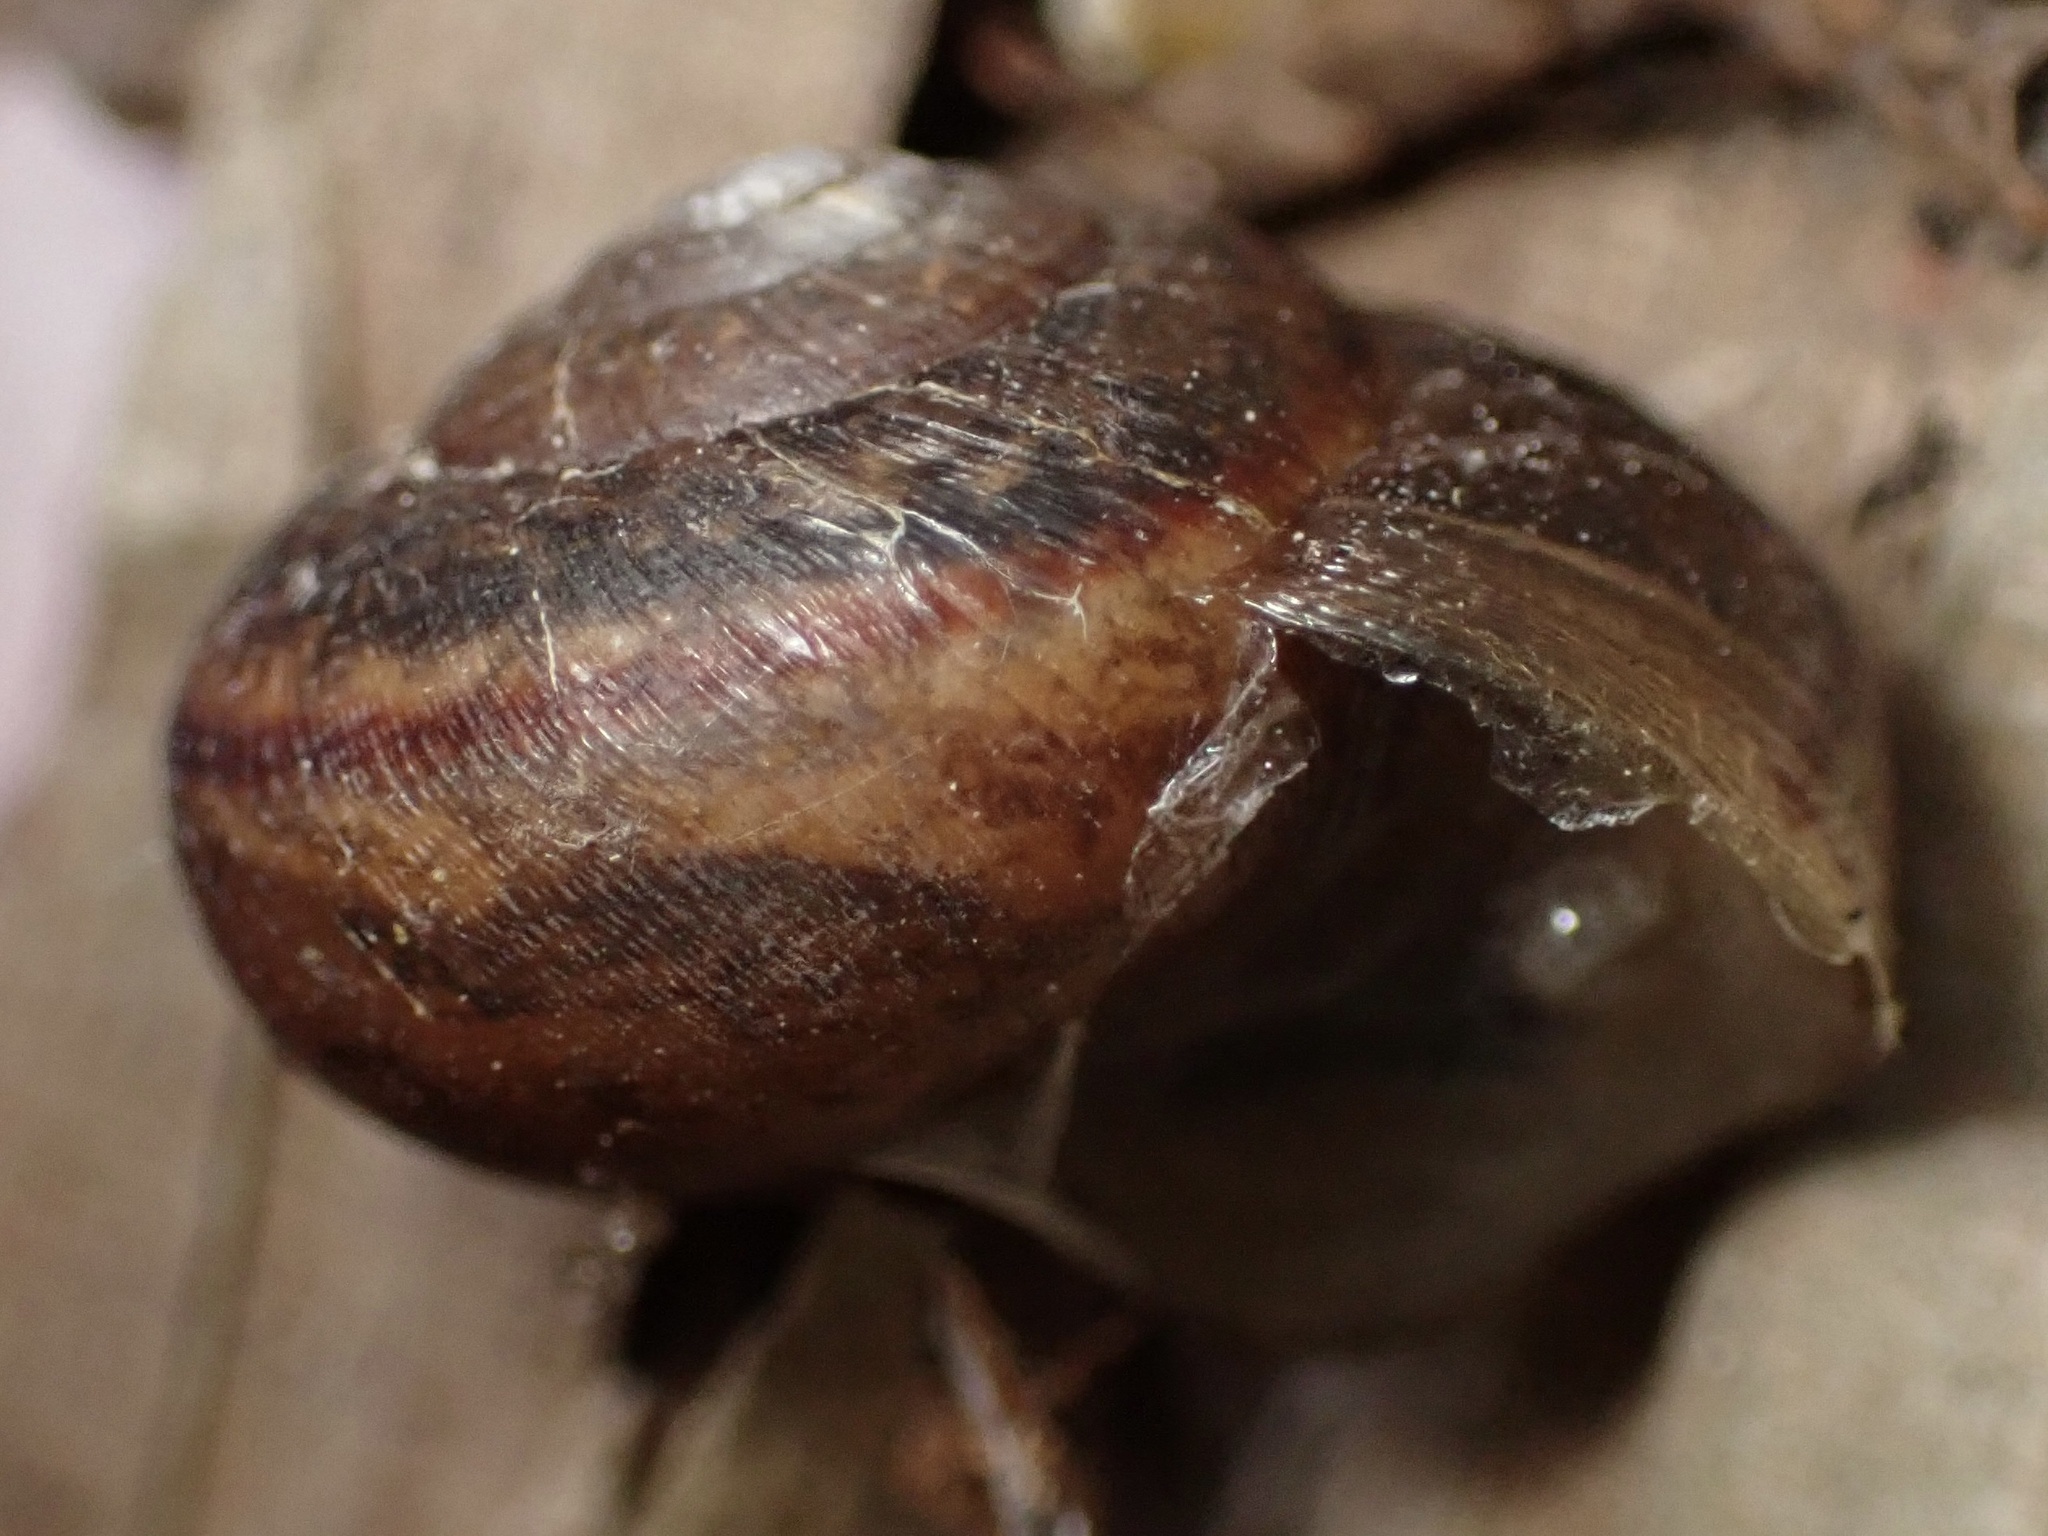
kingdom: Animalia
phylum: Mollusca
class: Gastropoda
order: Stylommatophora
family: Xanthonychidae
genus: Helminthoglypta
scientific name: Helminthoglypta nickliniana
